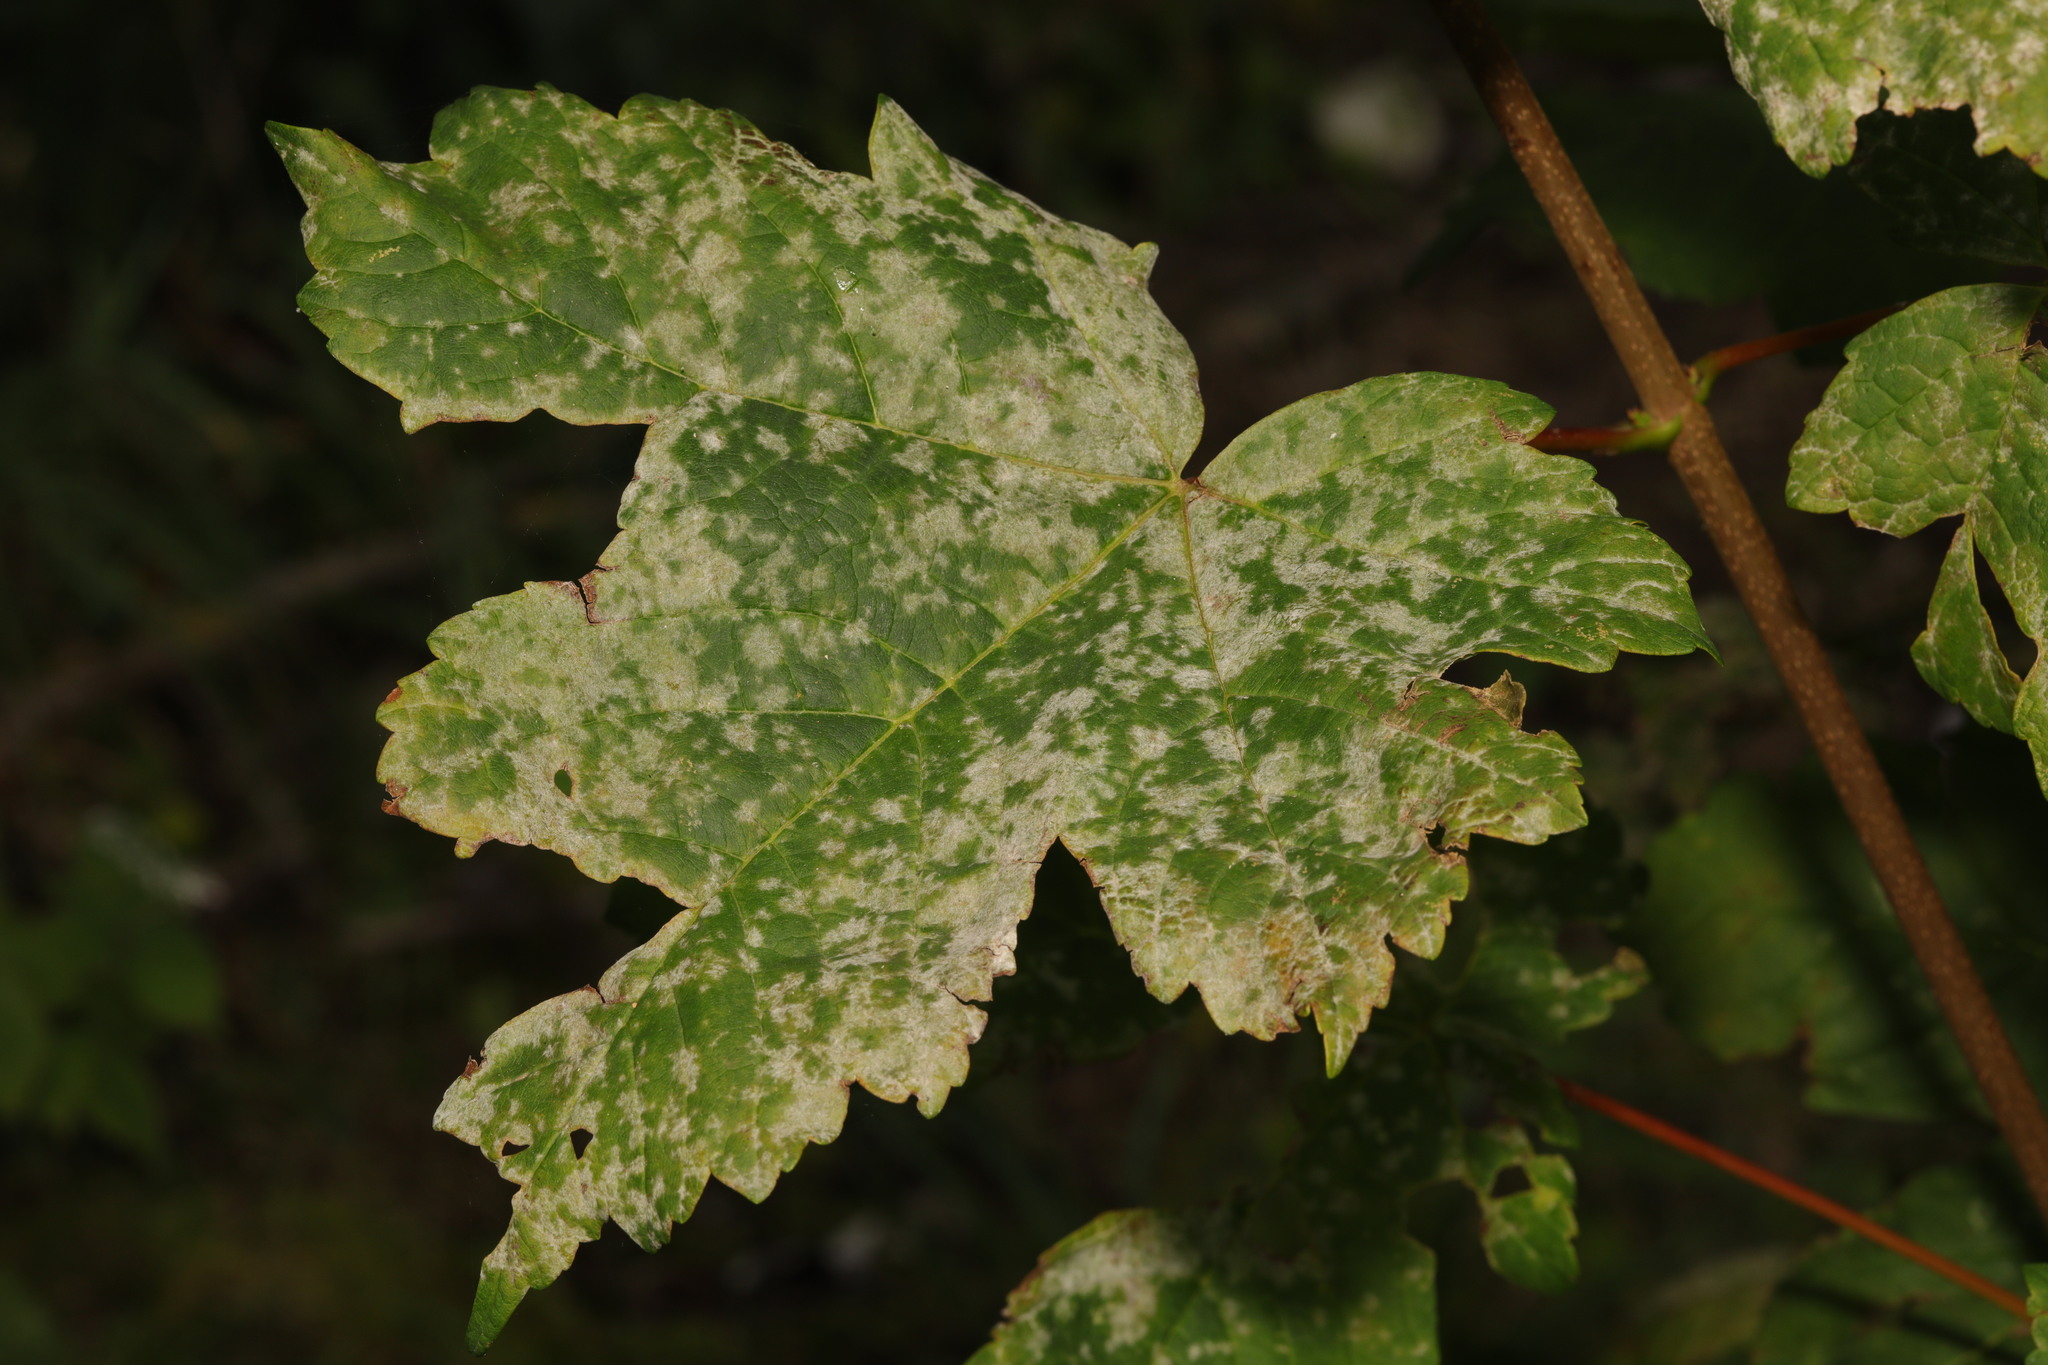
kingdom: Plantae
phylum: Tracheophyta
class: Magnoliopsida
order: Sapindales
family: Sapindaceae
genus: Acer
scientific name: Acer pseudoplatanus
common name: Sycamore
